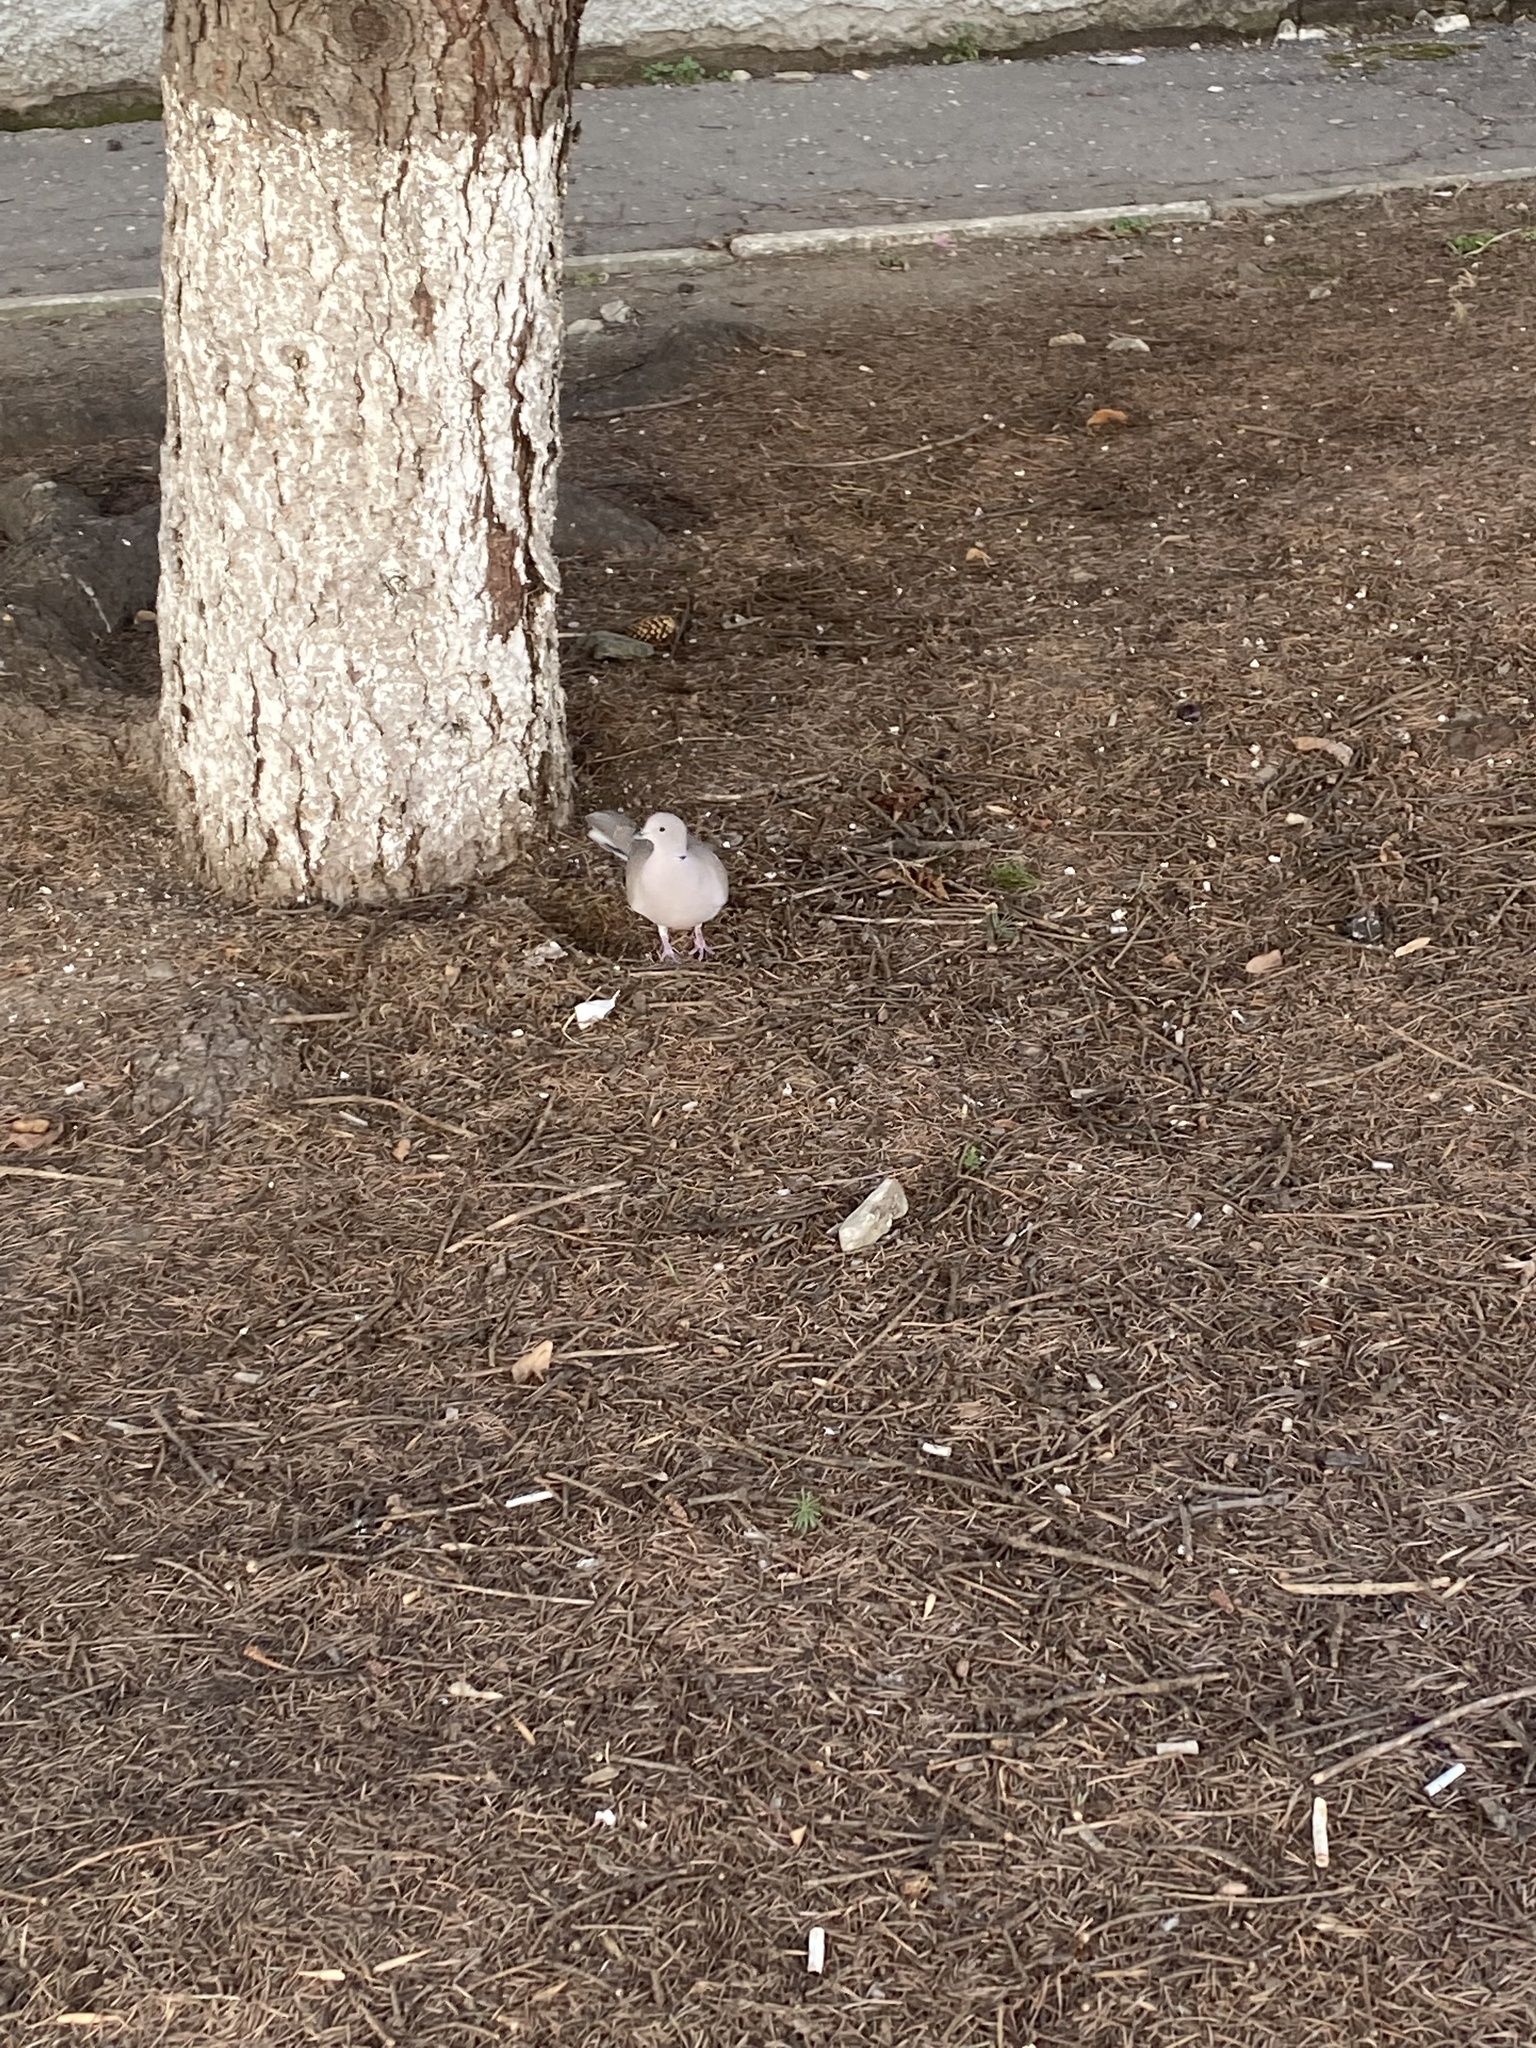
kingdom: Animalia
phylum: Chordata
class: Aves
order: Columbiformes
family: Columbidae
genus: Streptopelia
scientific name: Streptopelia decaocto
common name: Eurasian collared dove
